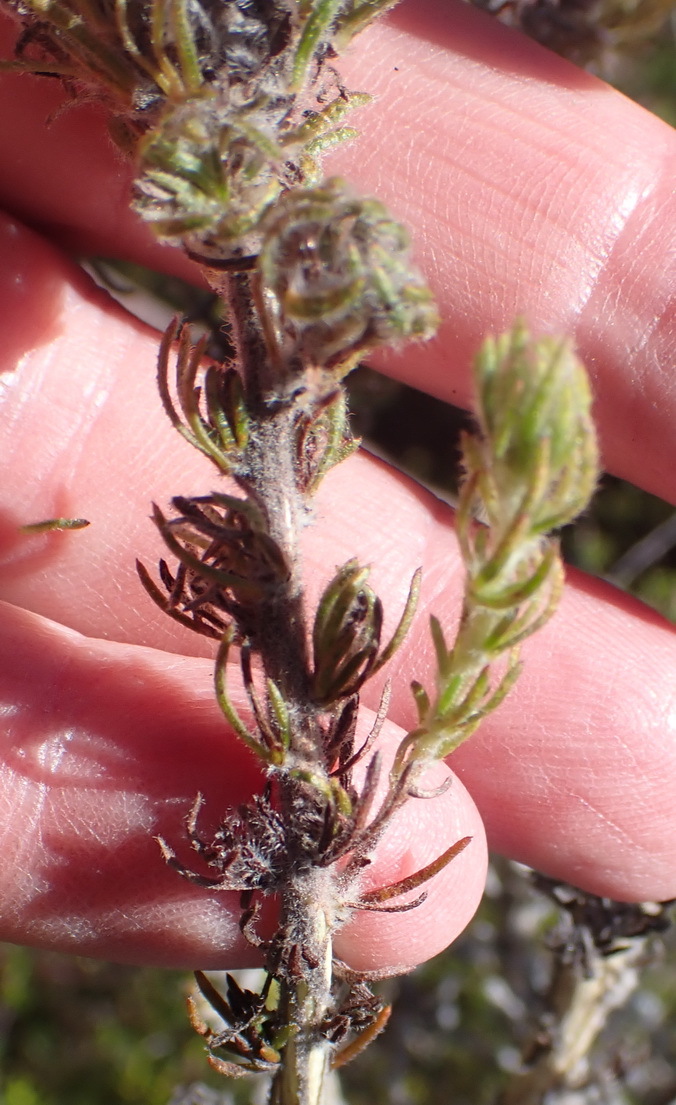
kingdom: Plantae
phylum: Tracheophyta
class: Magnoliopsida
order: Fabales
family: Fabaceae
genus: Aspalathus
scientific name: Aspalathus shawii
